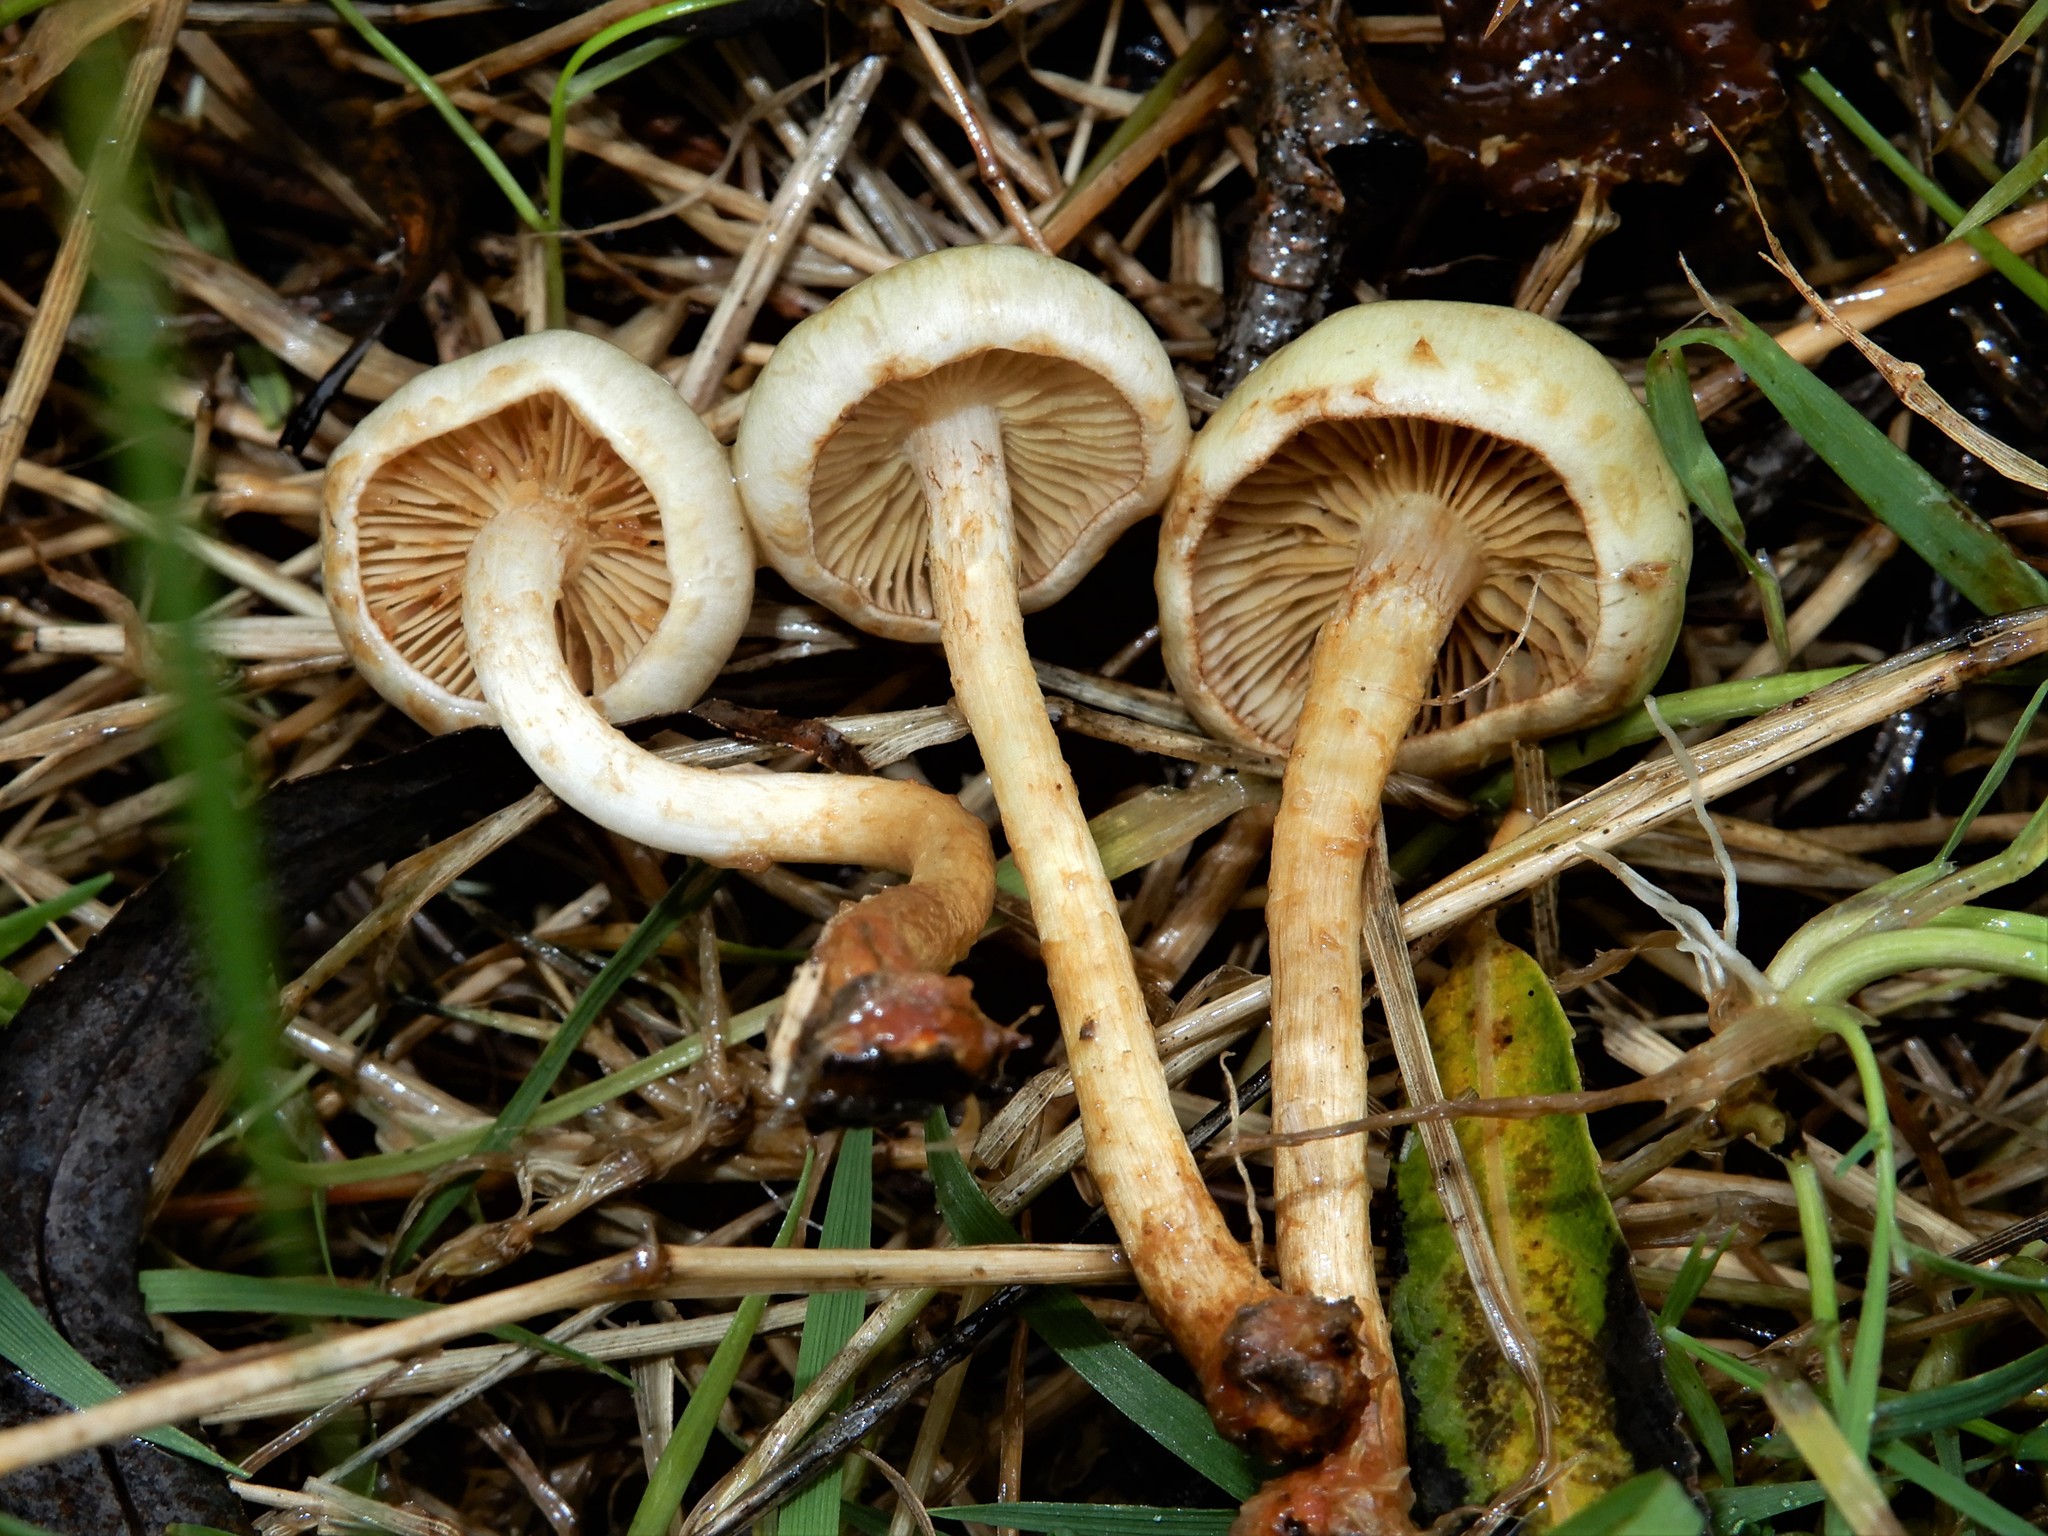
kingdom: Fungi
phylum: Basidiomycota
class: Agaricomycetes
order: Agaricales
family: Strophariaceae
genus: Pholiota
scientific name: Pholiota gummosa
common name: Sticky scalycap
